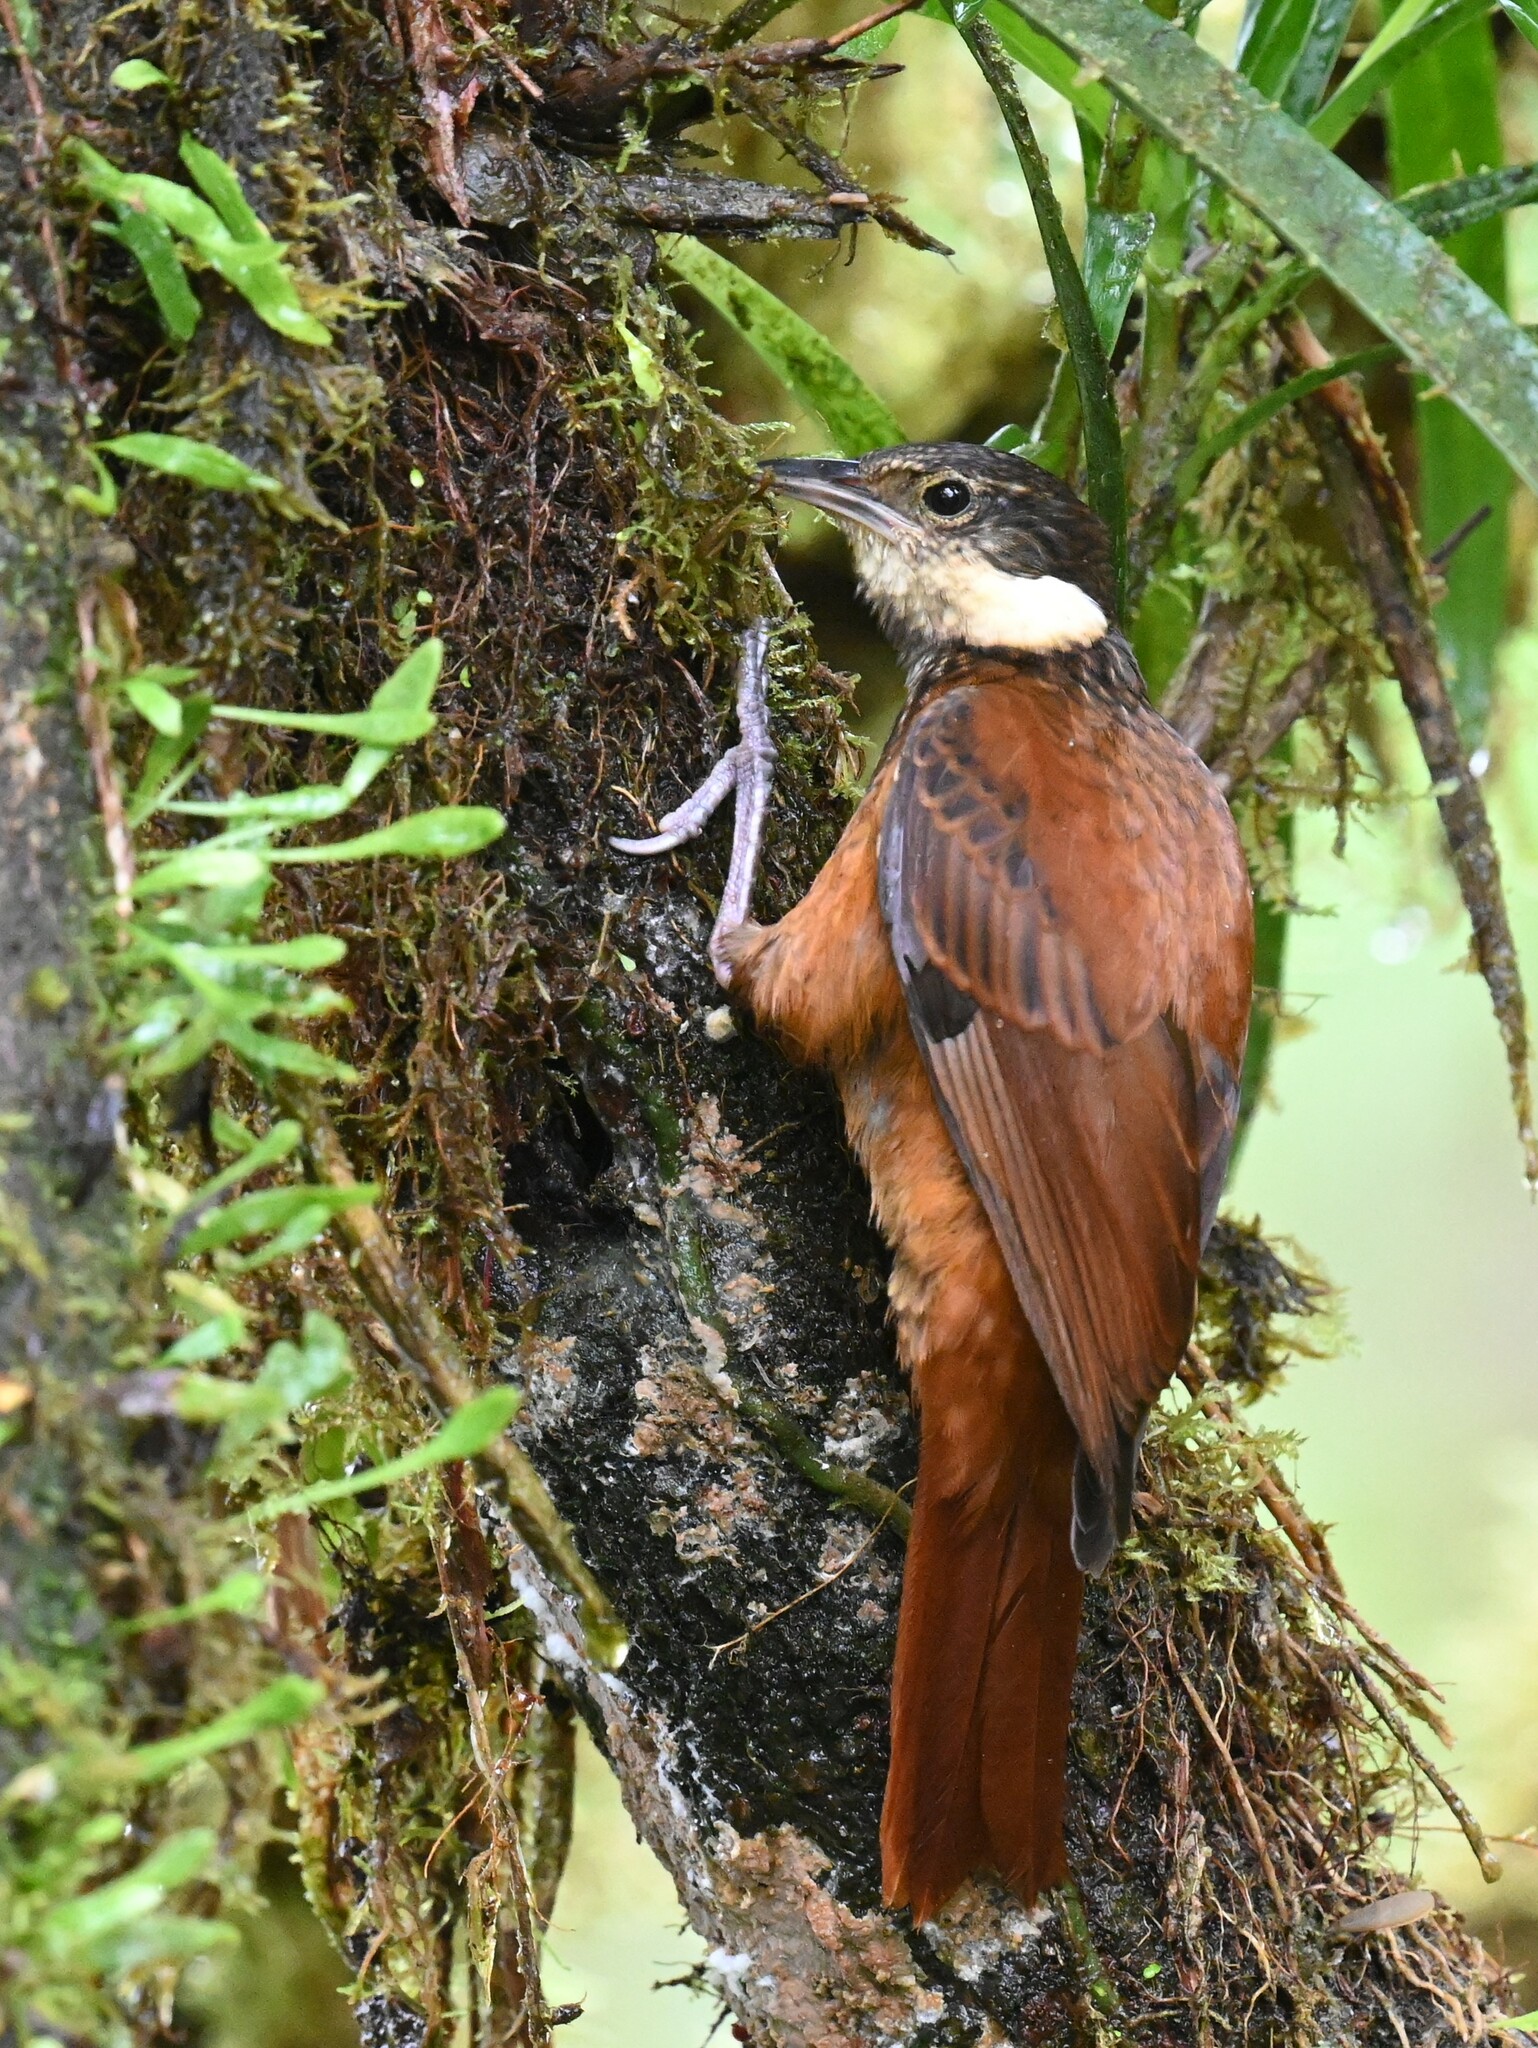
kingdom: Animalia
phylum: Chordata
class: Aves
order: Passeriformes
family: Furnariidae
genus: Pseudocolaptes
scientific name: Pseudocolaptes boissonneautii
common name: Streaked tuftedcheek
